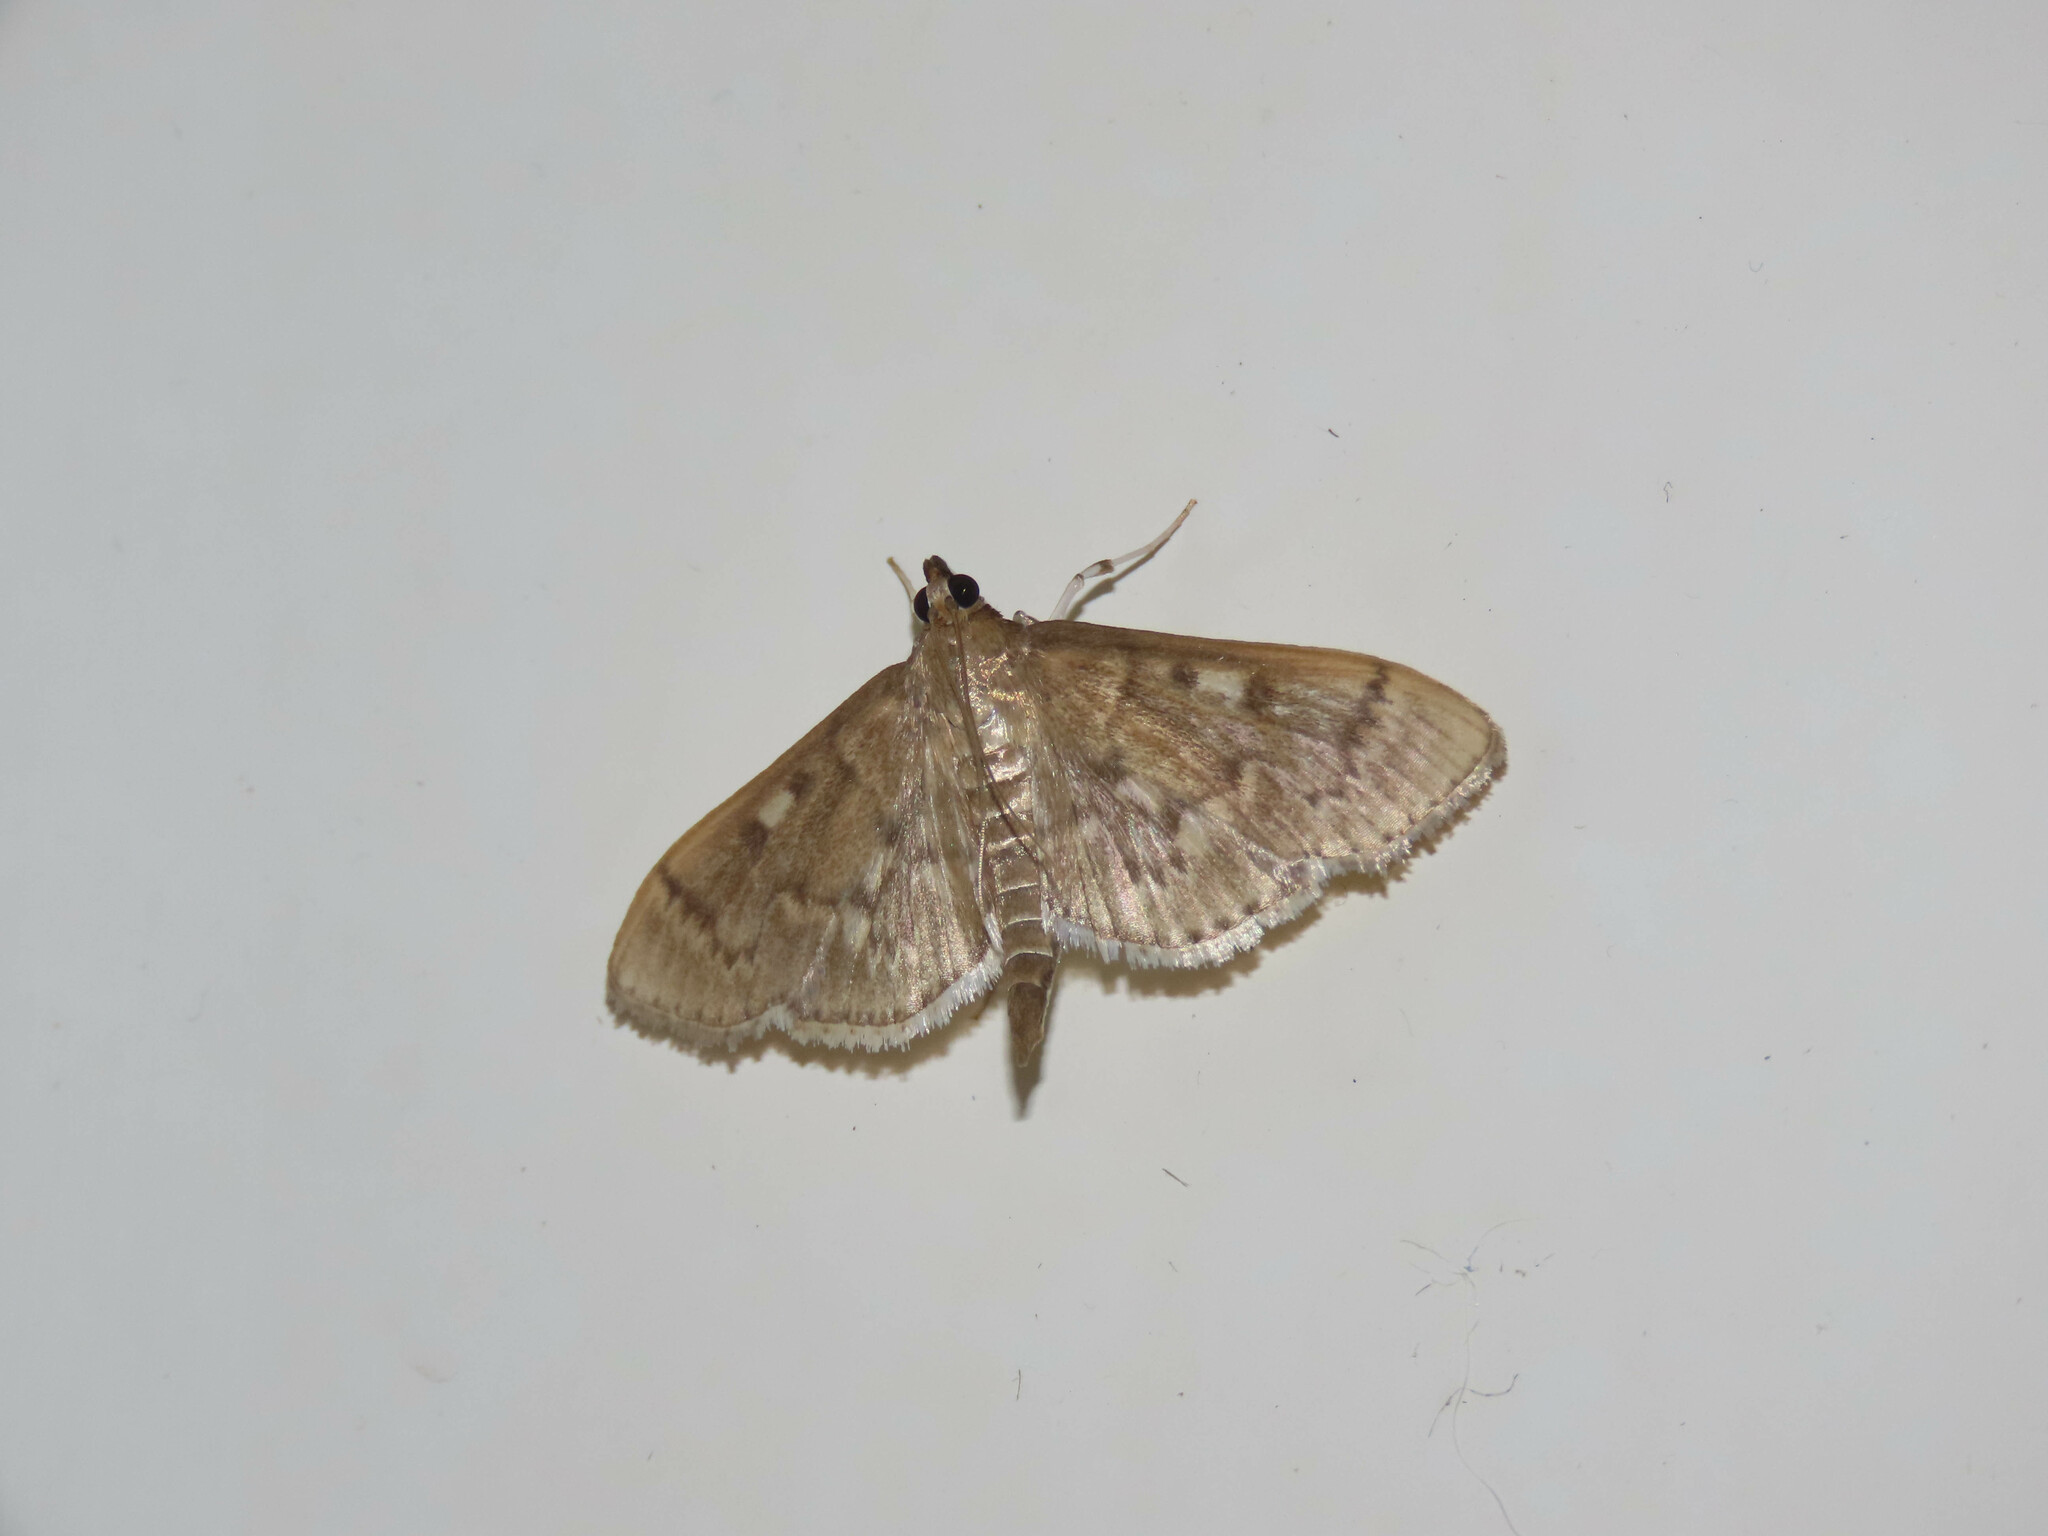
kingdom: Animalia
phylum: Arthropoda
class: Insecta
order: Lepidoptera
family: Crambidae
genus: Herpetogramma
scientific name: Herpetogramma aeglealis
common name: Serpentine webworm moth
